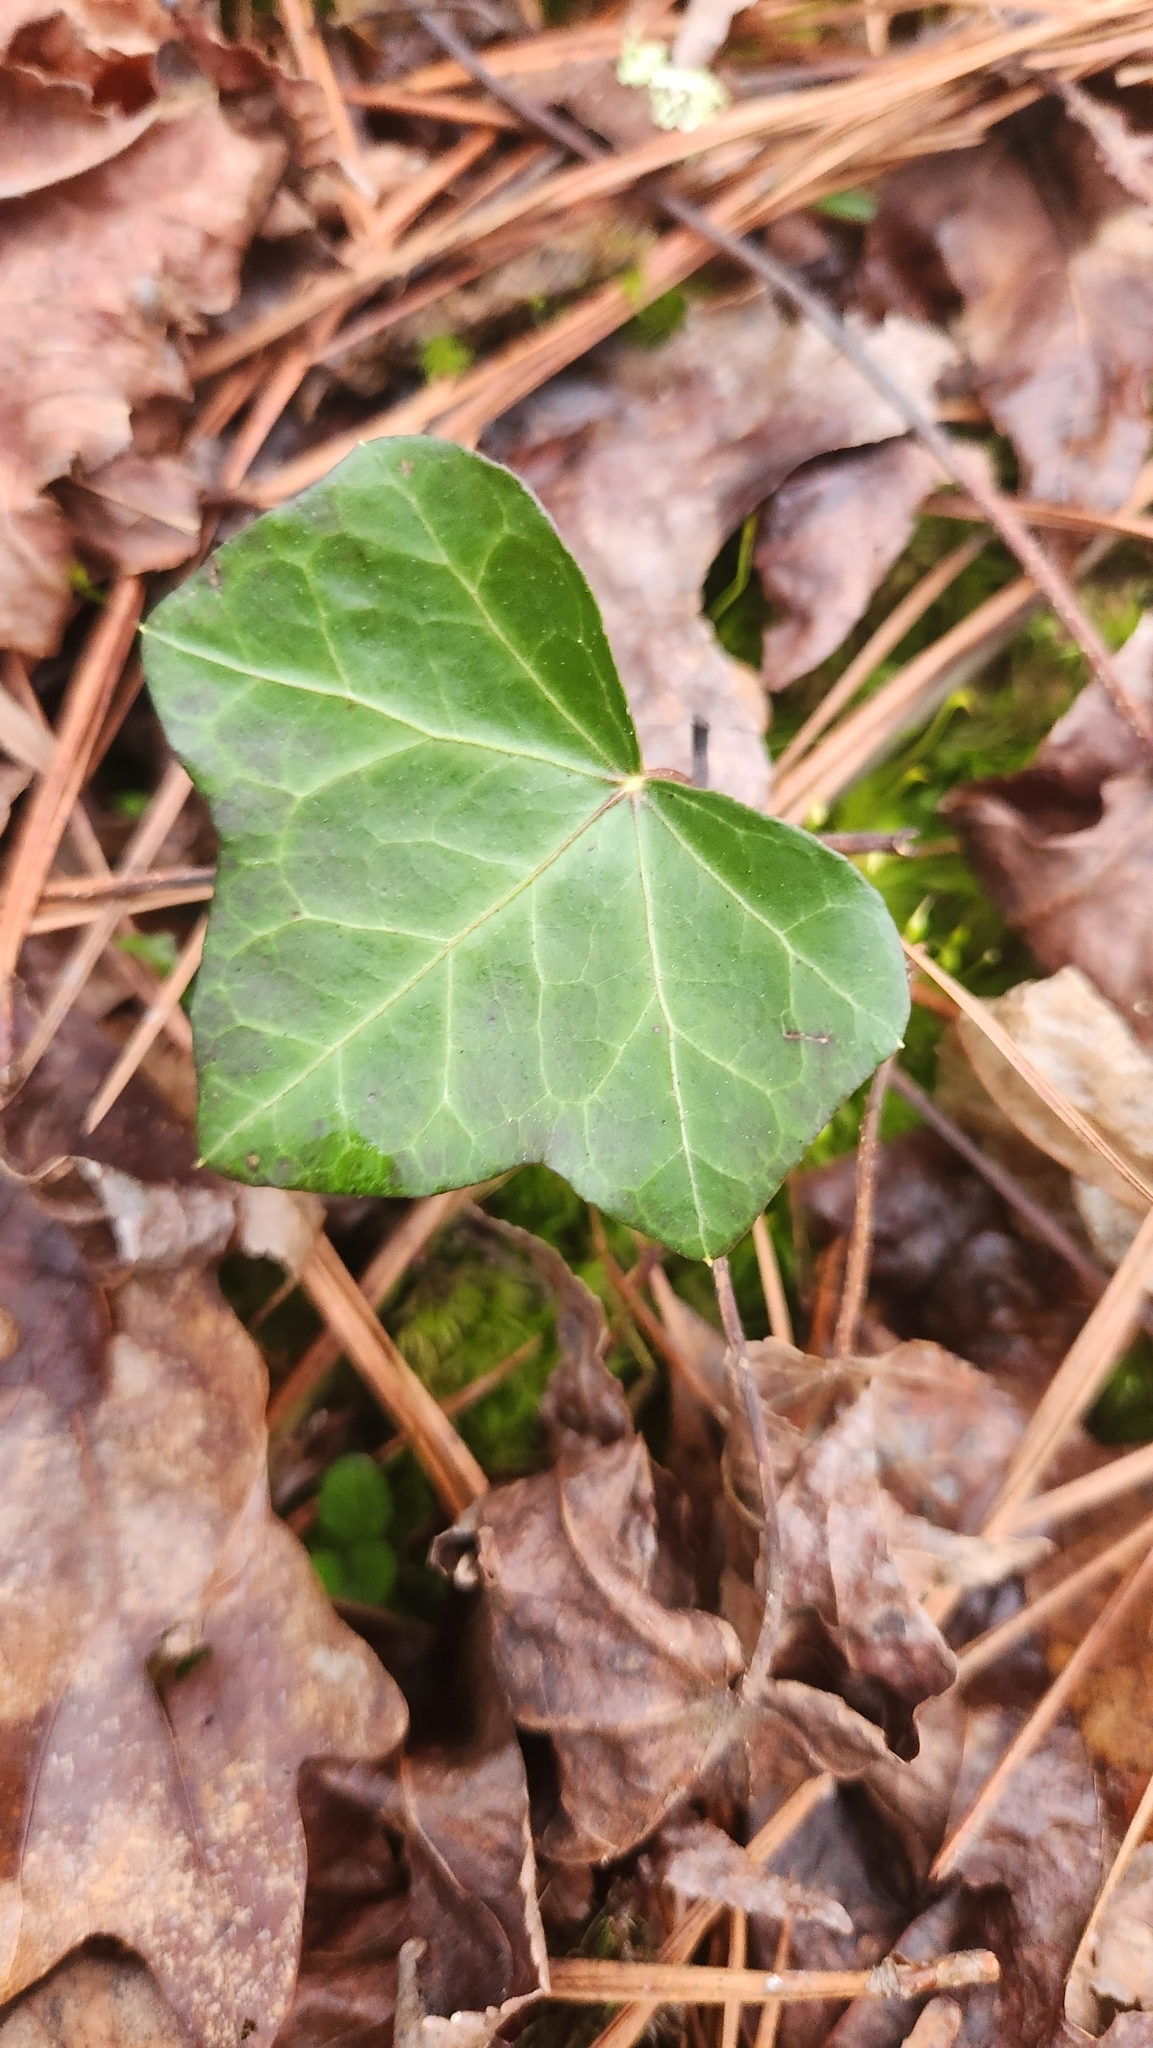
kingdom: Plantae
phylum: Tracheophyta
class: Magnoliopsida
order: Apiales
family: Araliaceae
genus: Hedera
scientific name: Hedera helix
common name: Ivy
